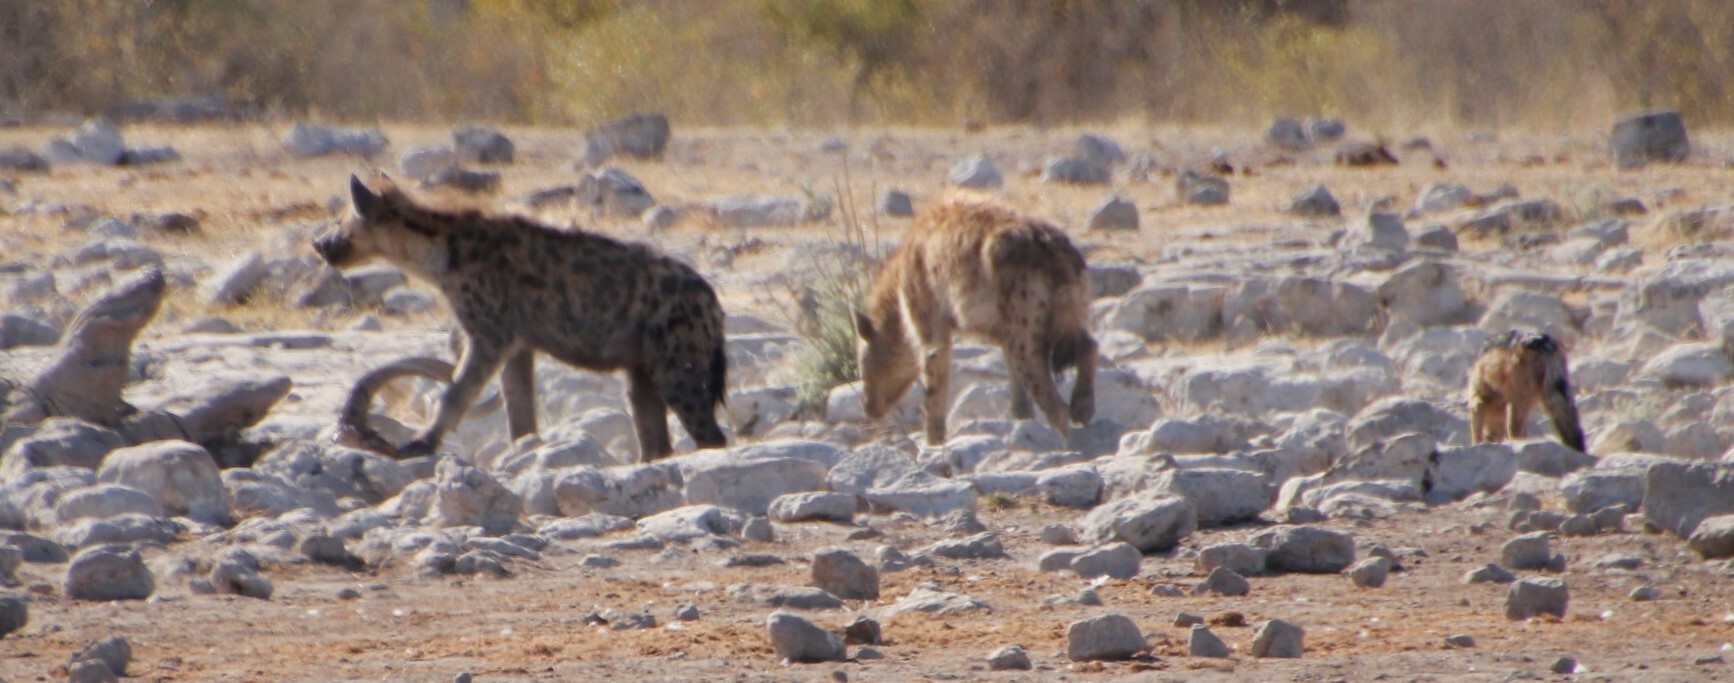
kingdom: Animalia
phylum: Chordata
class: Mammalia
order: Carnivora
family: Hyaenidae
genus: Crocuta
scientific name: Crocuta crocuta
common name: Spotted hyaena
